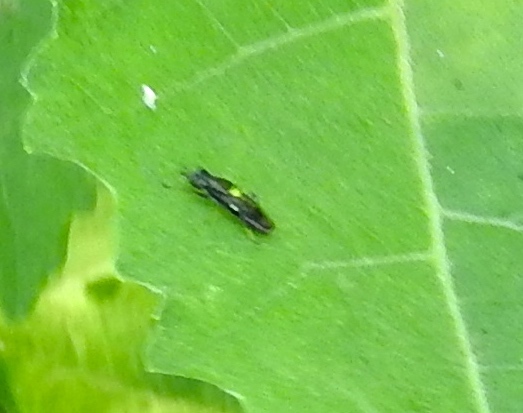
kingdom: Animalia
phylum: Arthropoda
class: Insecta
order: Diptera
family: Stratiomyidae
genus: Myxosargus
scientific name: Myxosargus
